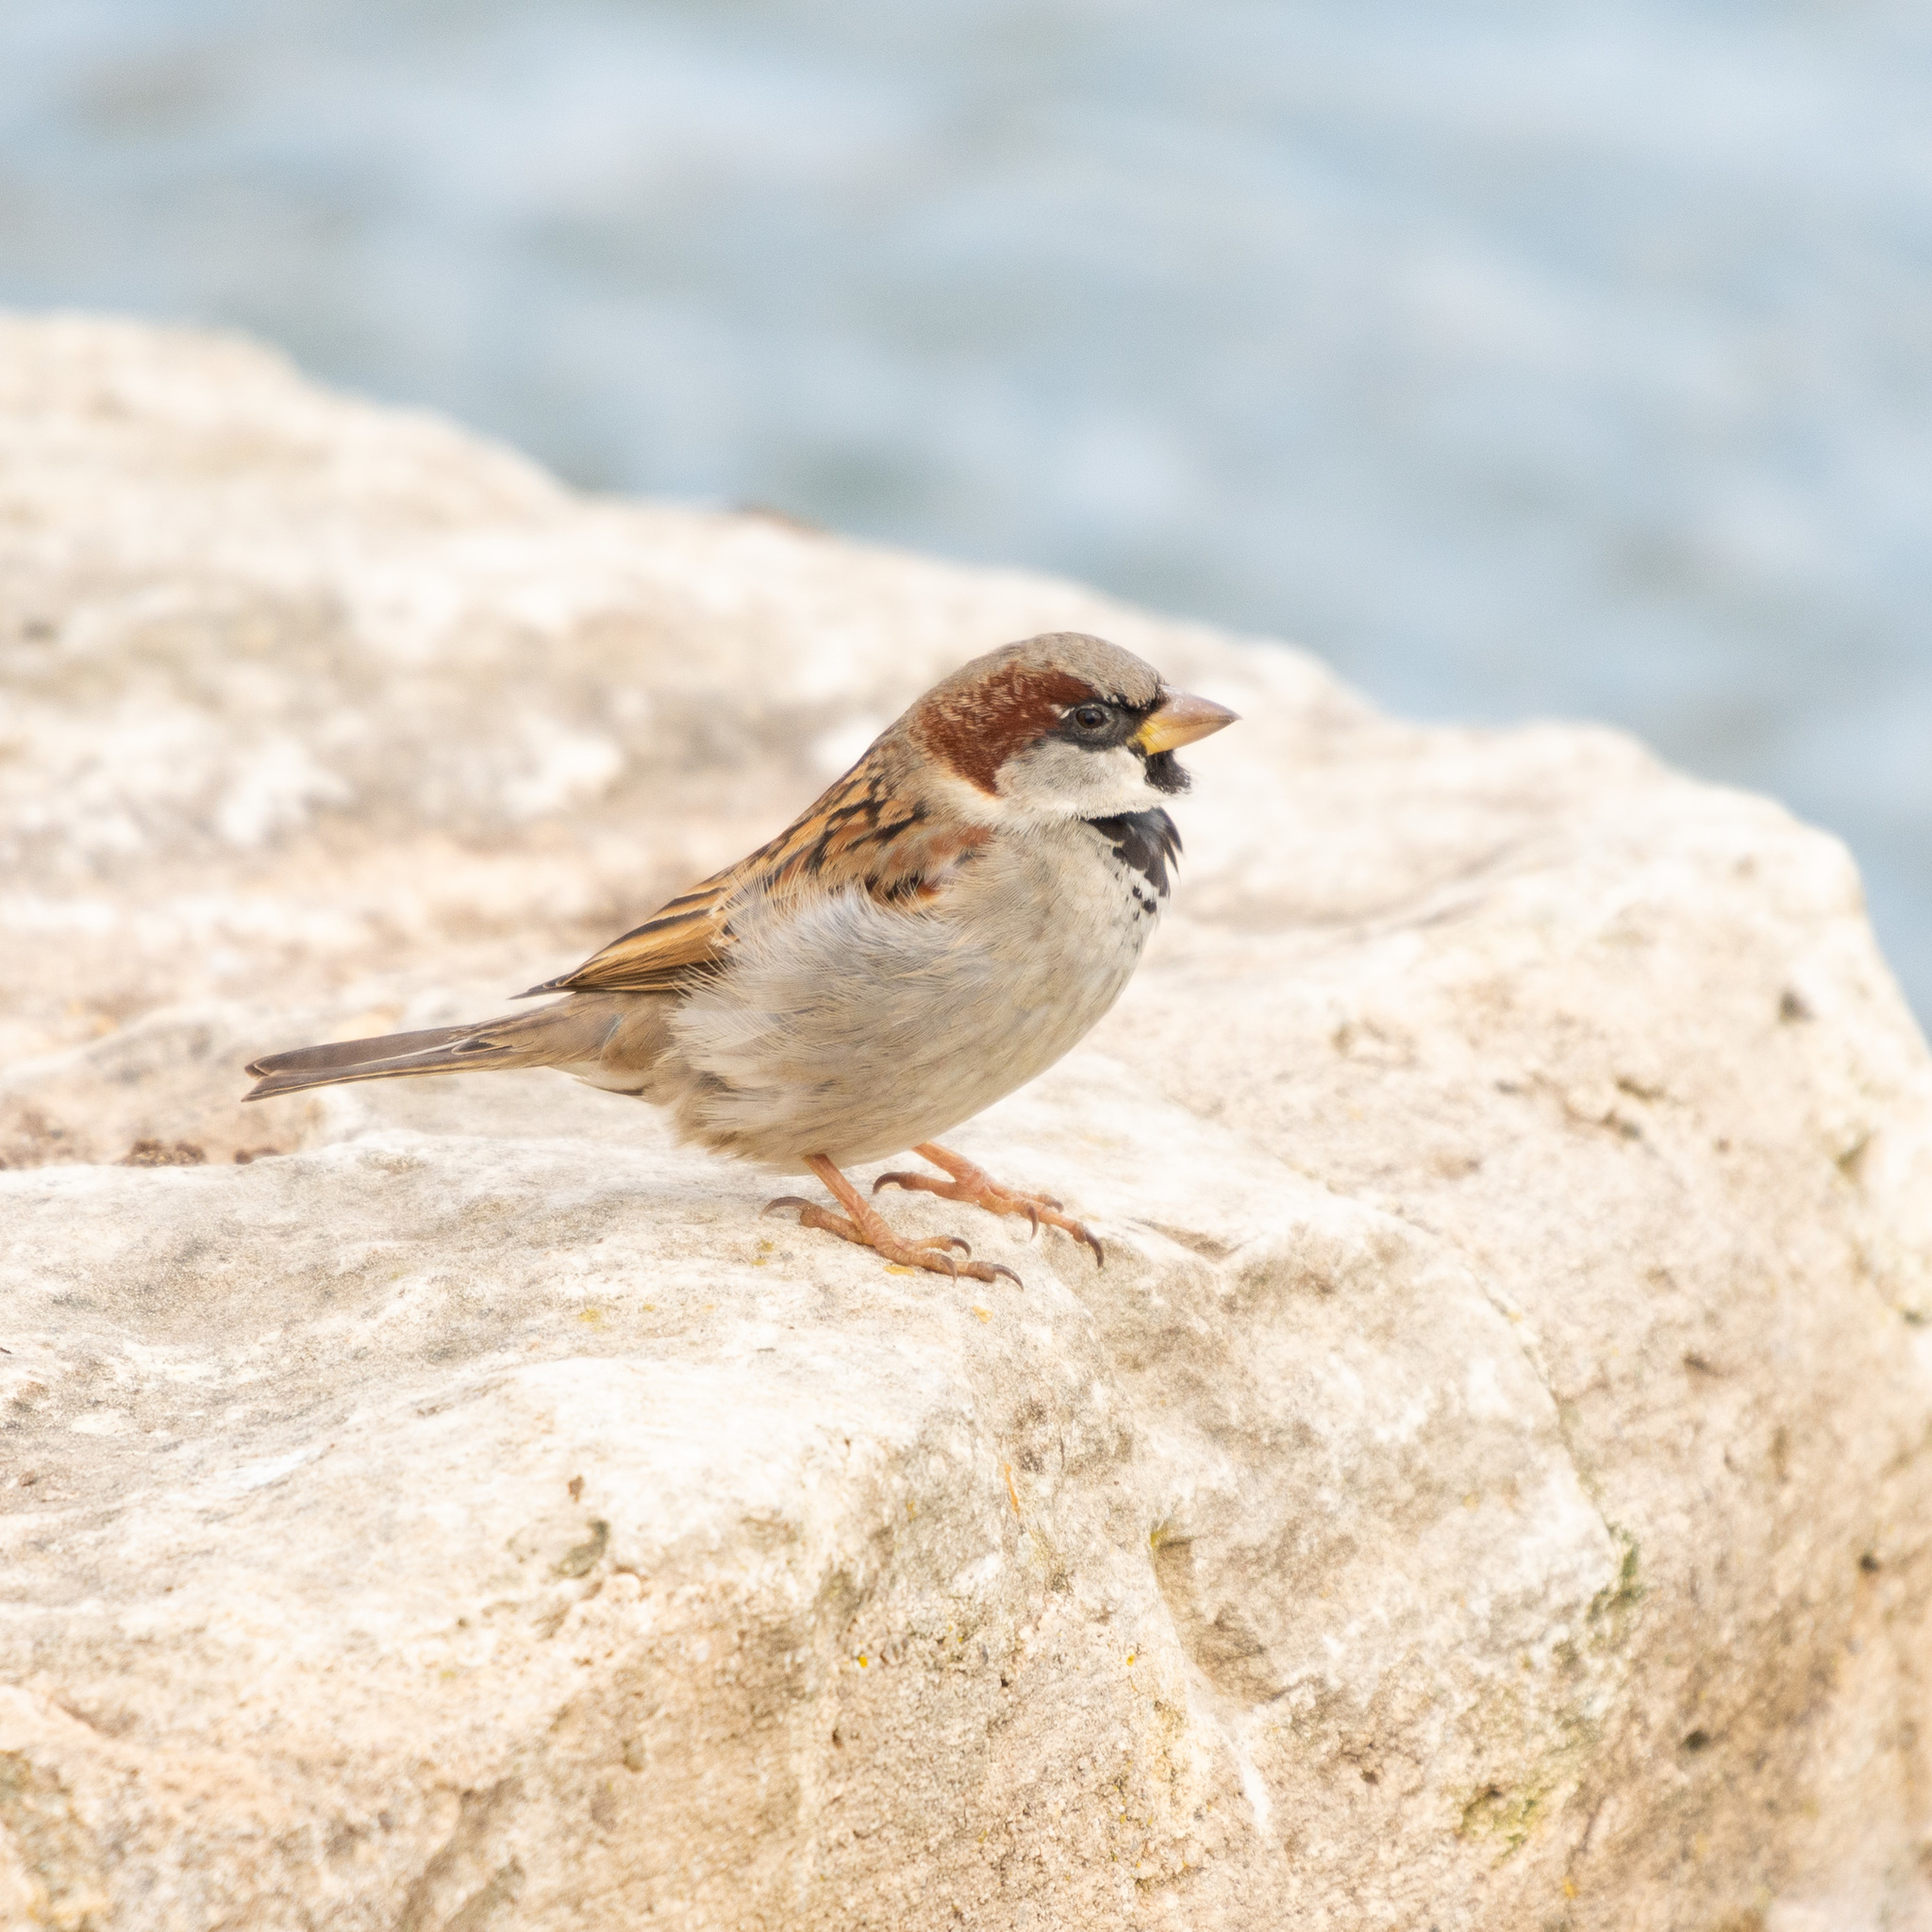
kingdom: Animalia
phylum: Chordata
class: Aves
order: Passeriformes
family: Passeridae
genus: Passer
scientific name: Passer domesticus
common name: House sparrow
